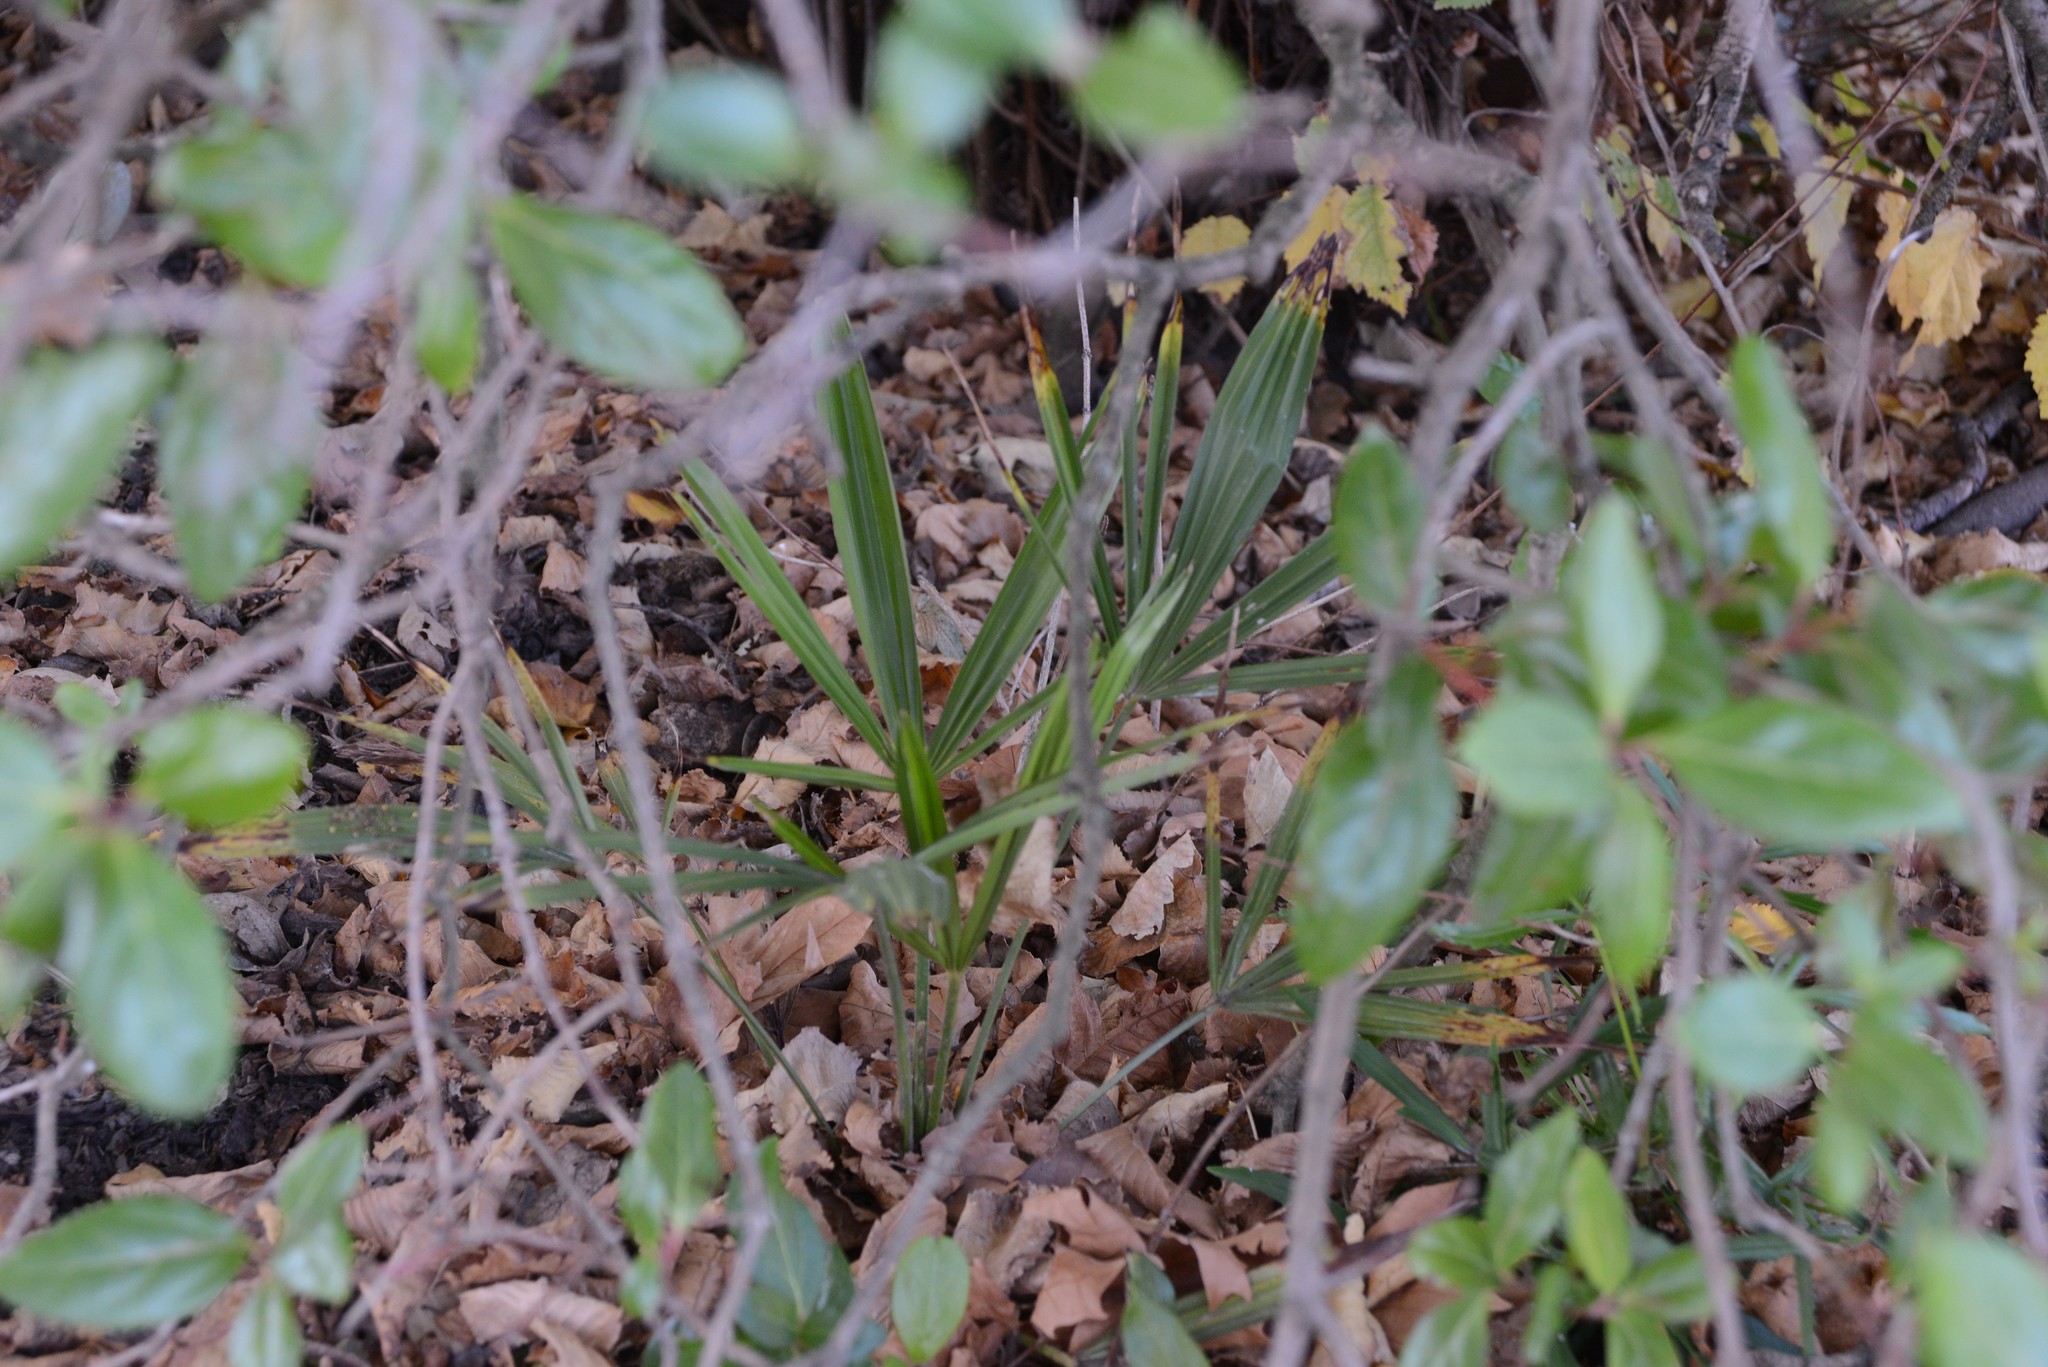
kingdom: Plantae
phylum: Tracheophyta
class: Liliopsida
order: Arecales
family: Arecaceae
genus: Trachycarpus
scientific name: Trachycarpus fortunei
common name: Chusan palm
